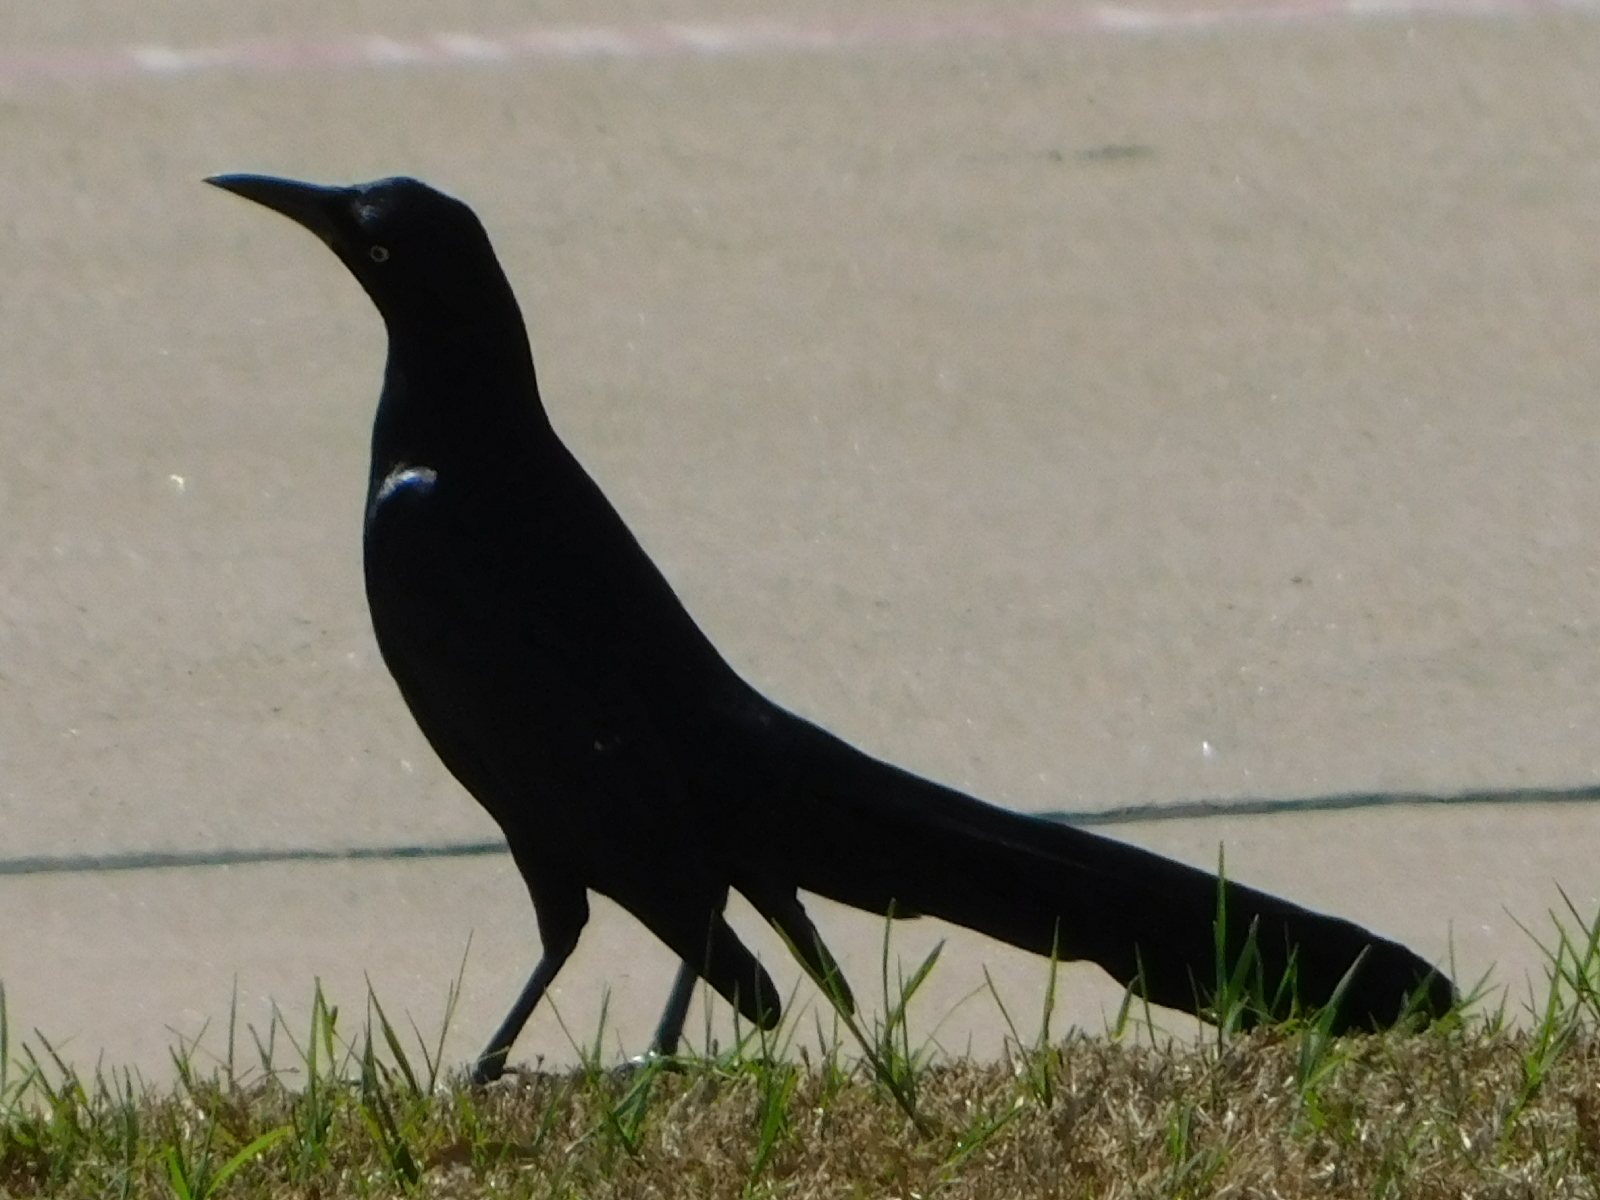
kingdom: Animalia
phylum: Chordata
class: Aves
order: Passeriformes
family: Icteridae
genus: Quiscalus
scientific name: Quiscalus mexicanus
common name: Great-tailed grackle
